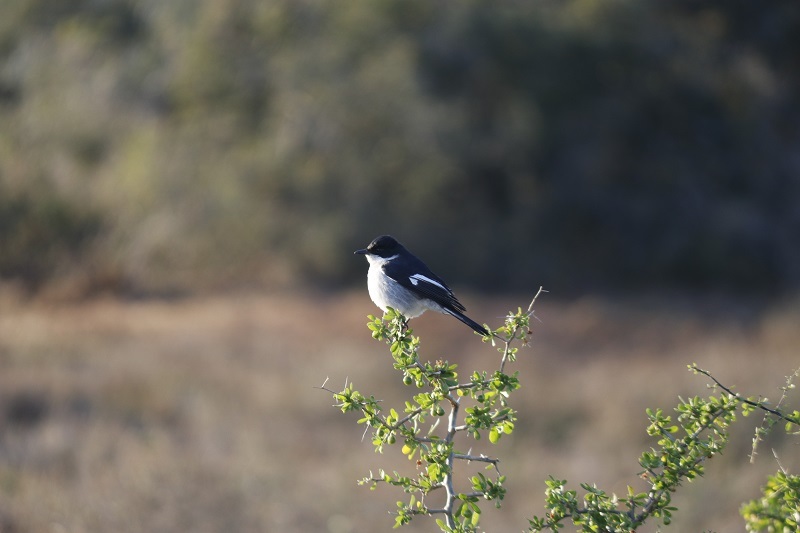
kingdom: Animalia
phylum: Chordata
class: Aves
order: Passeriformes
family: Muscicapidae
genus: Sigelus
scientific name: Sigelus silens
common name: Fiscal flycatcher
